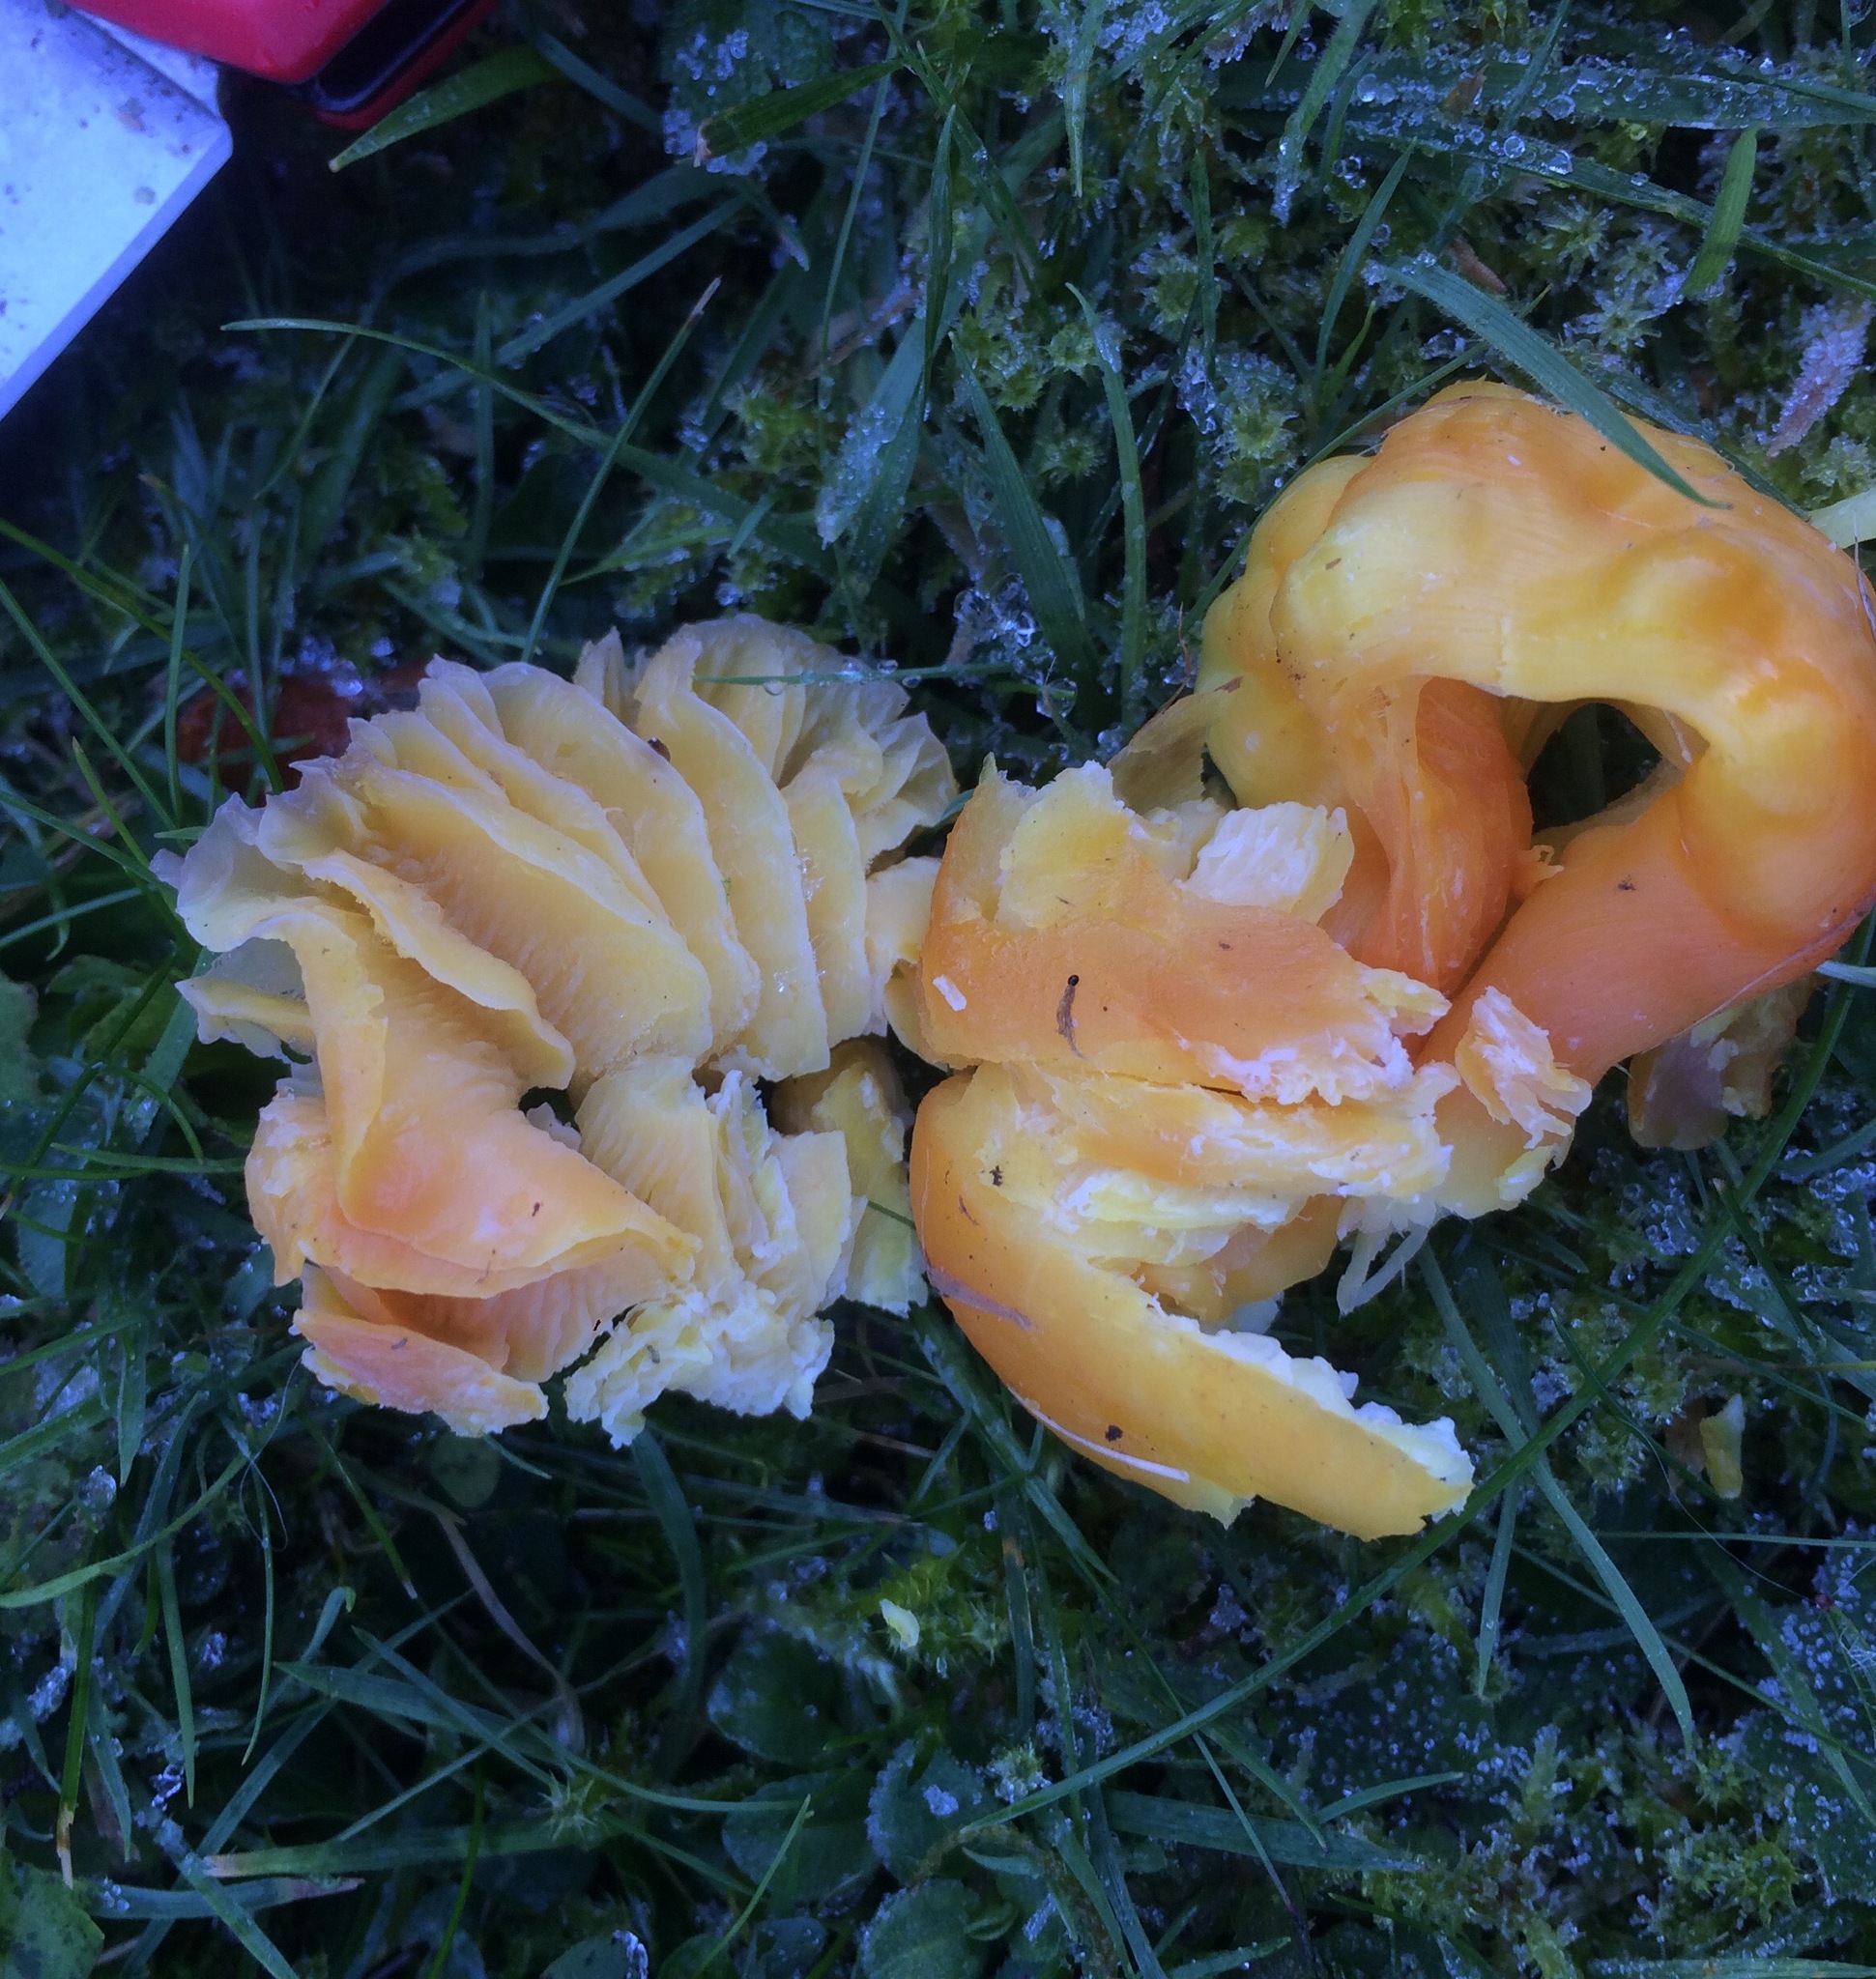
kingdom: Fungi
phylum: Basidiomycota
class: Agaricomycetes
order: Agaricales
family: Hygrophoraceae
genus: Hygrocybe
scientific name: Hygrocybe quieta
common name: Oily waxcap
